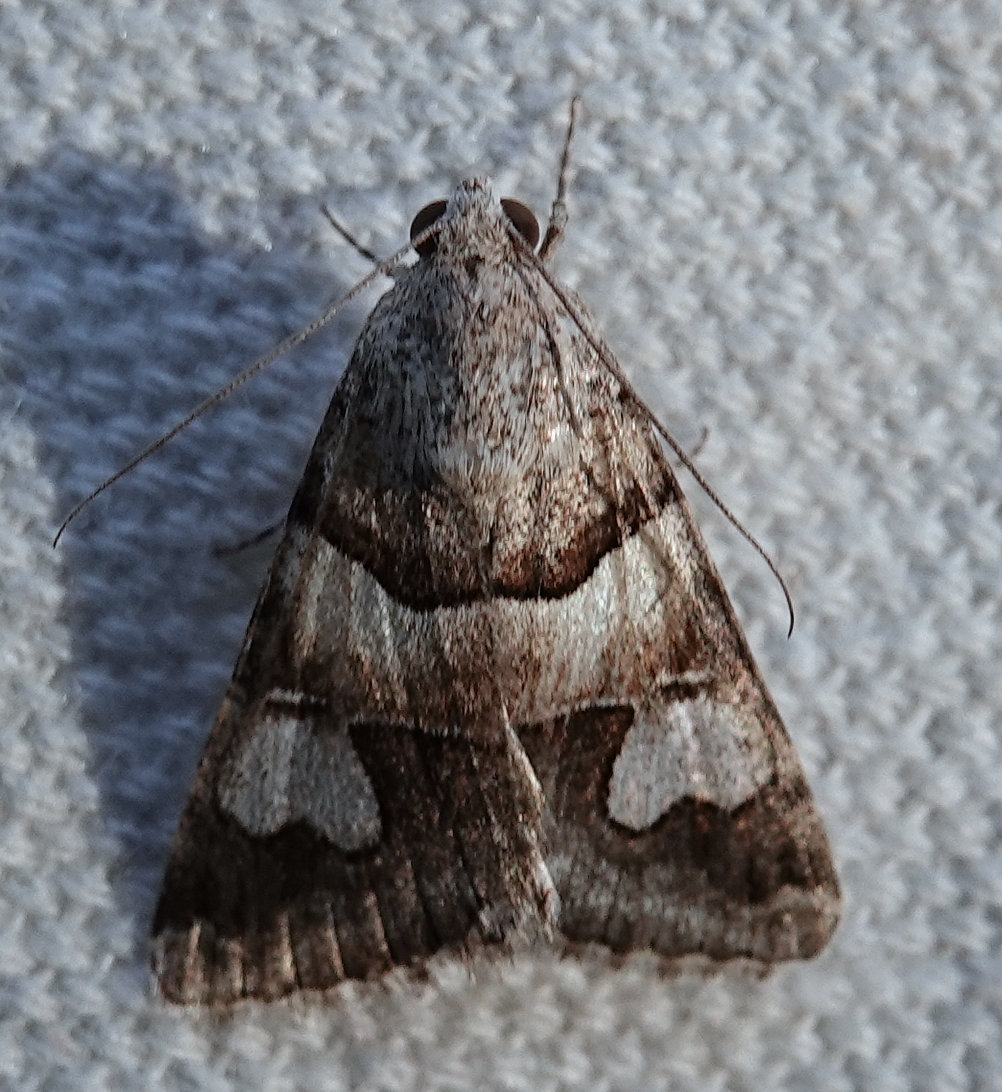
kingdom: Animalia
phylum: Arthropoda
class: Insecta
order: Lepidoptera
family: Erebidae
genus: Drasteria
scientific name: Drasteria pallescens
